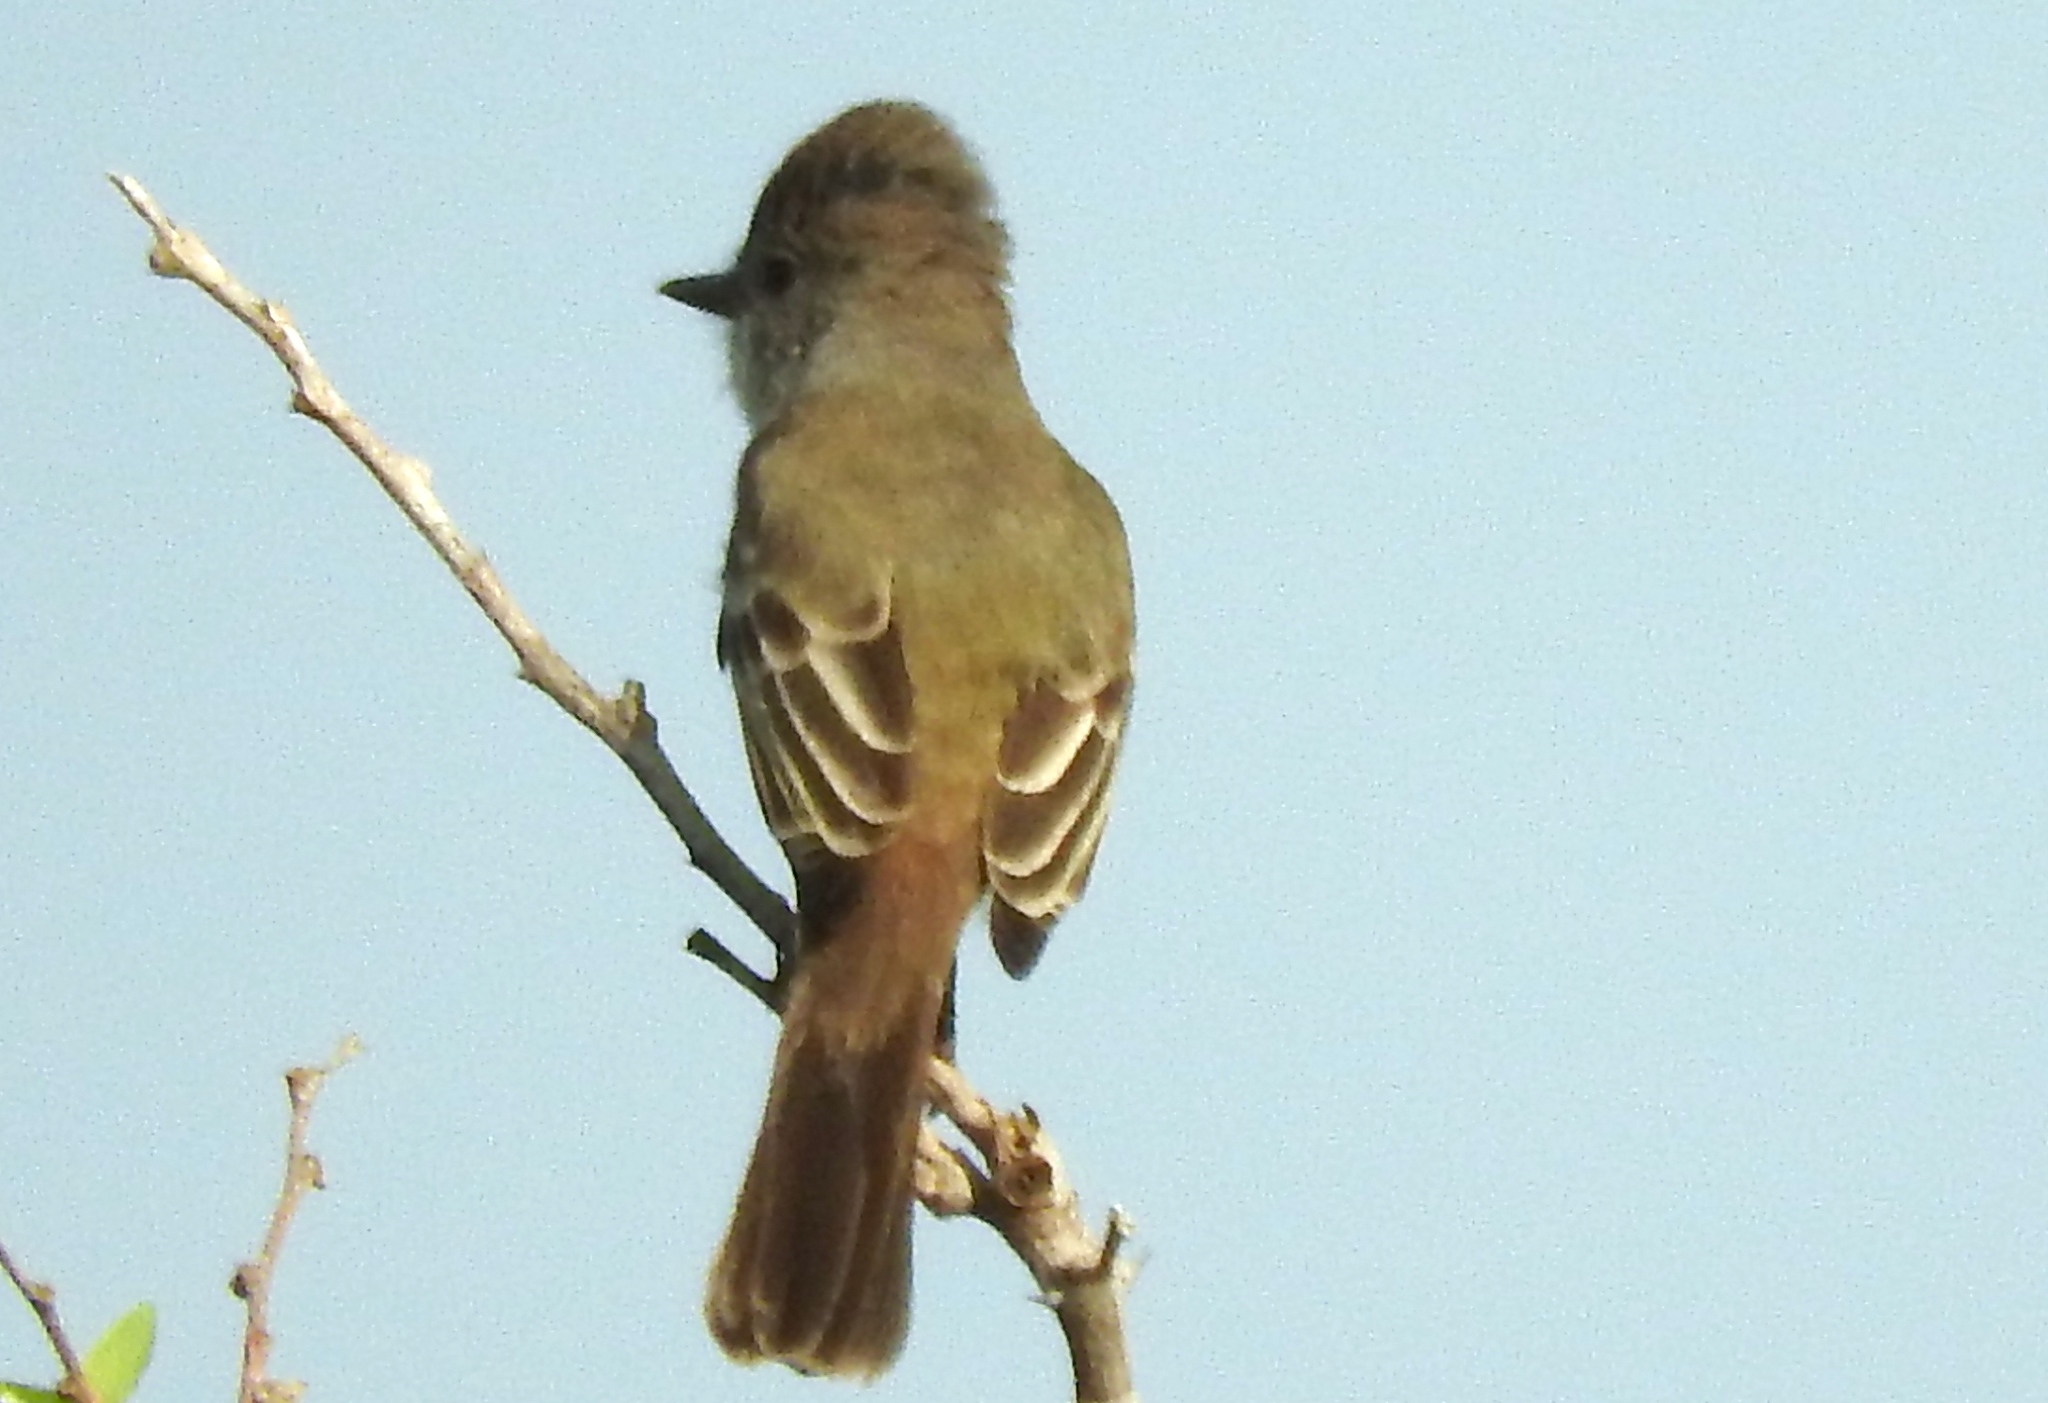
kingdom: Animalia
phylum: Chordata
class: Aves
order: Passeriformes
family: Tyrannidae
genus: Myiarchus
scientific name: Myiarchus
